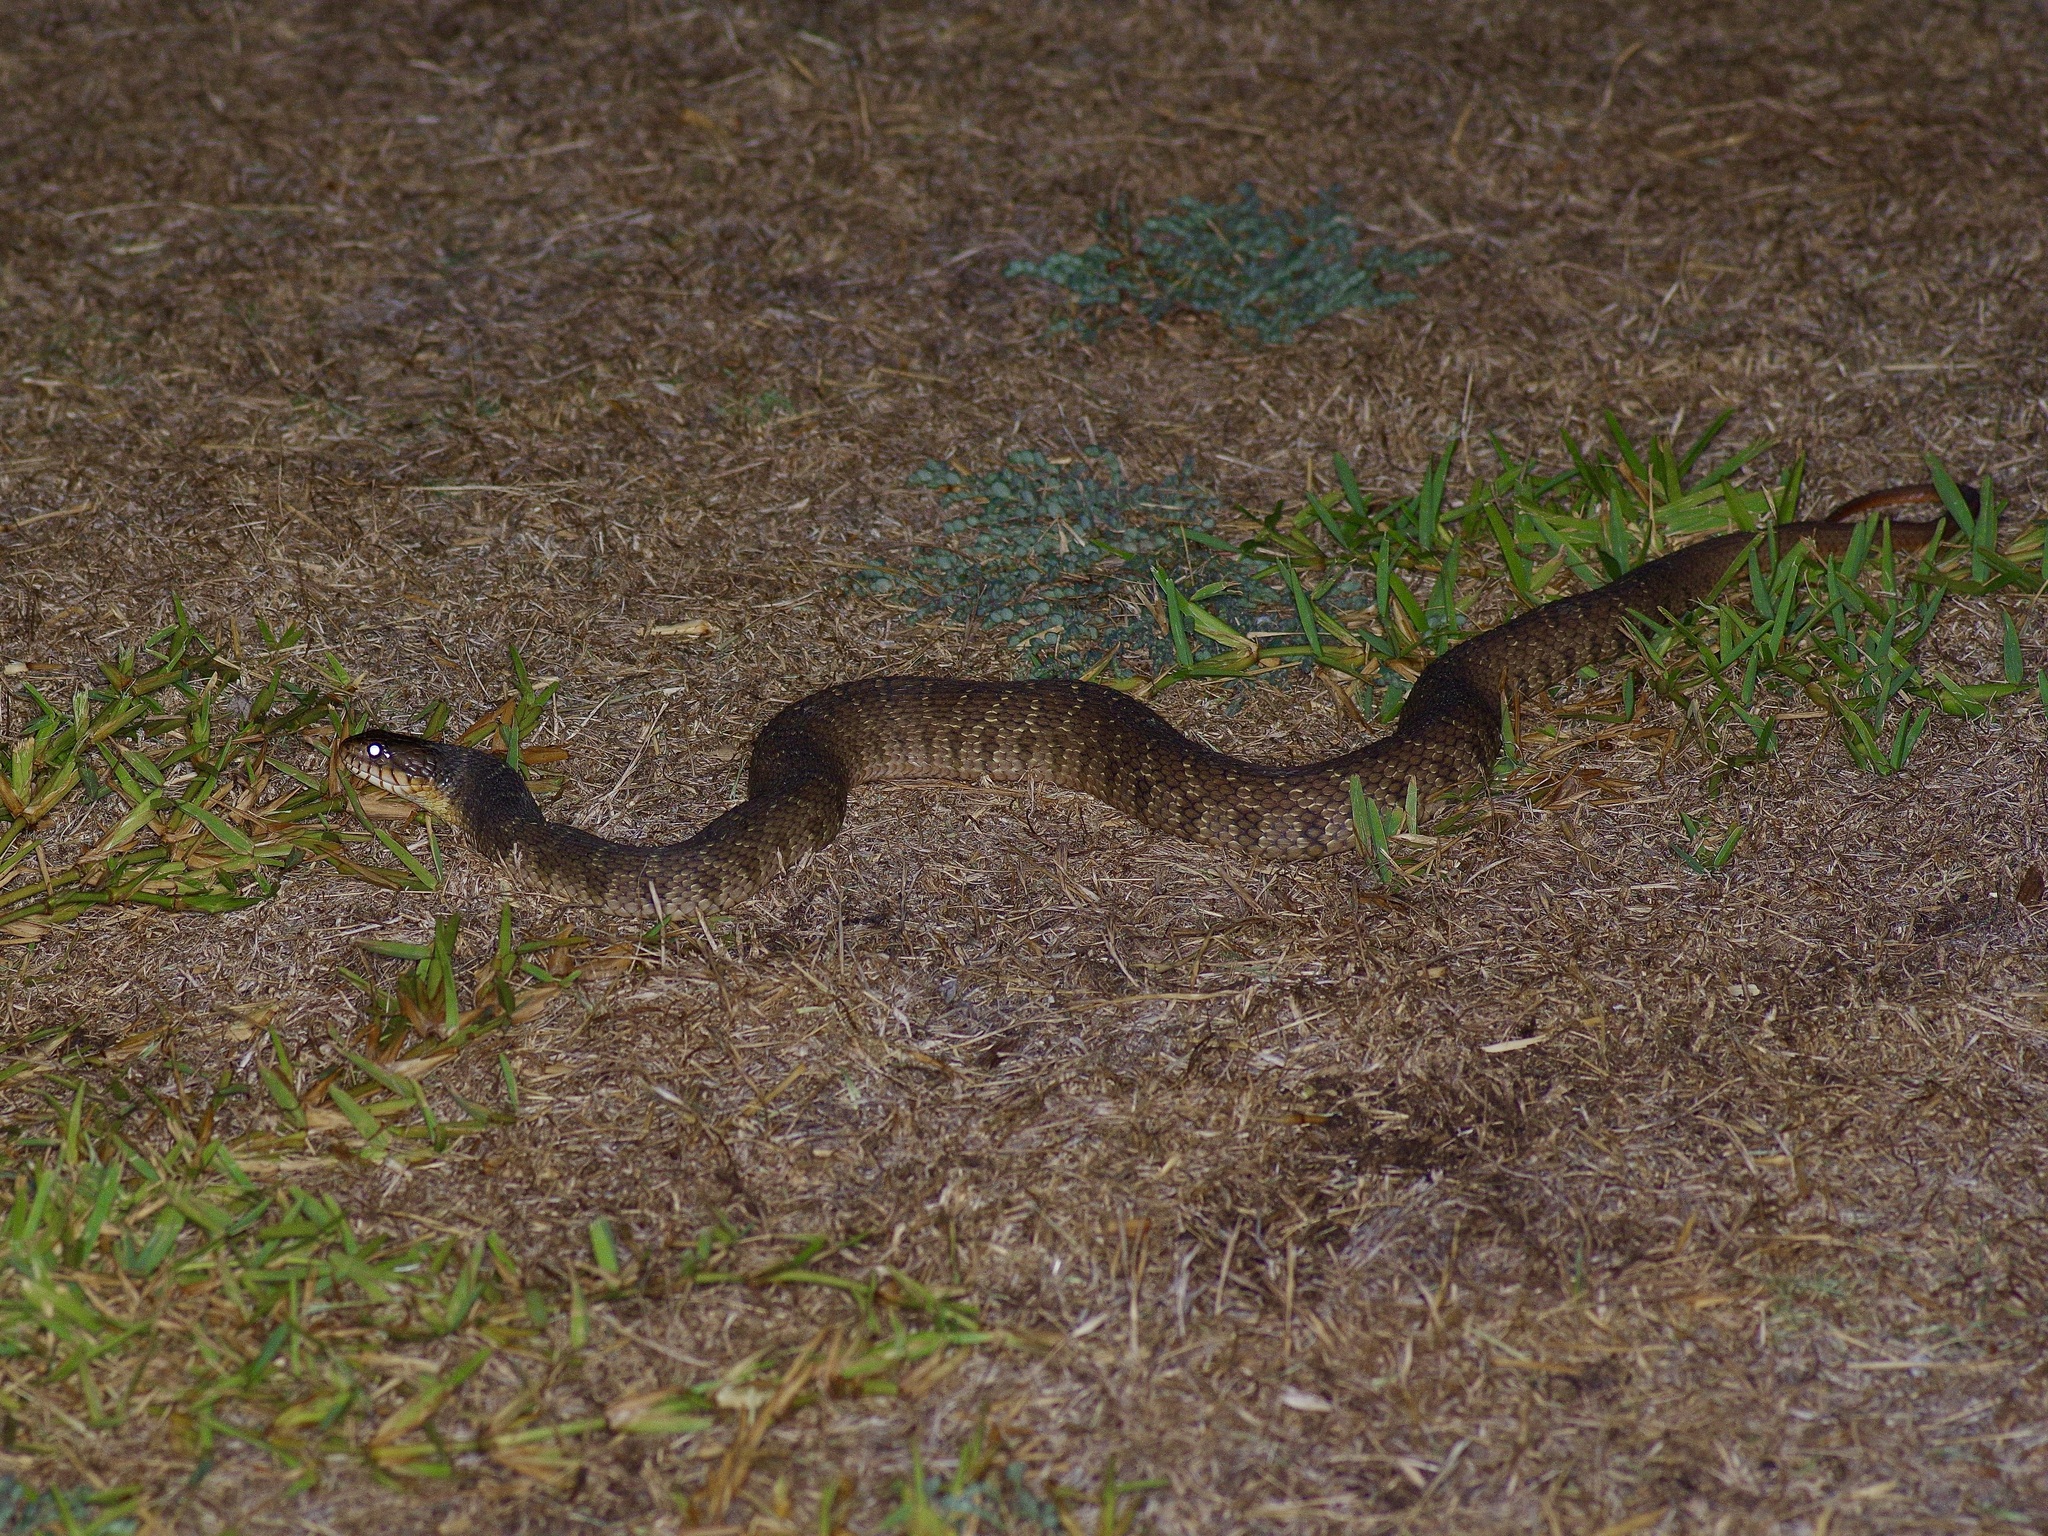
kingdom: Animalia
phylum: Chordata
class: Squamata
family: Colubridae
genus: Nerodia
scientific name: Nerodia erythrogaster
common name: Plainbelly water snake
